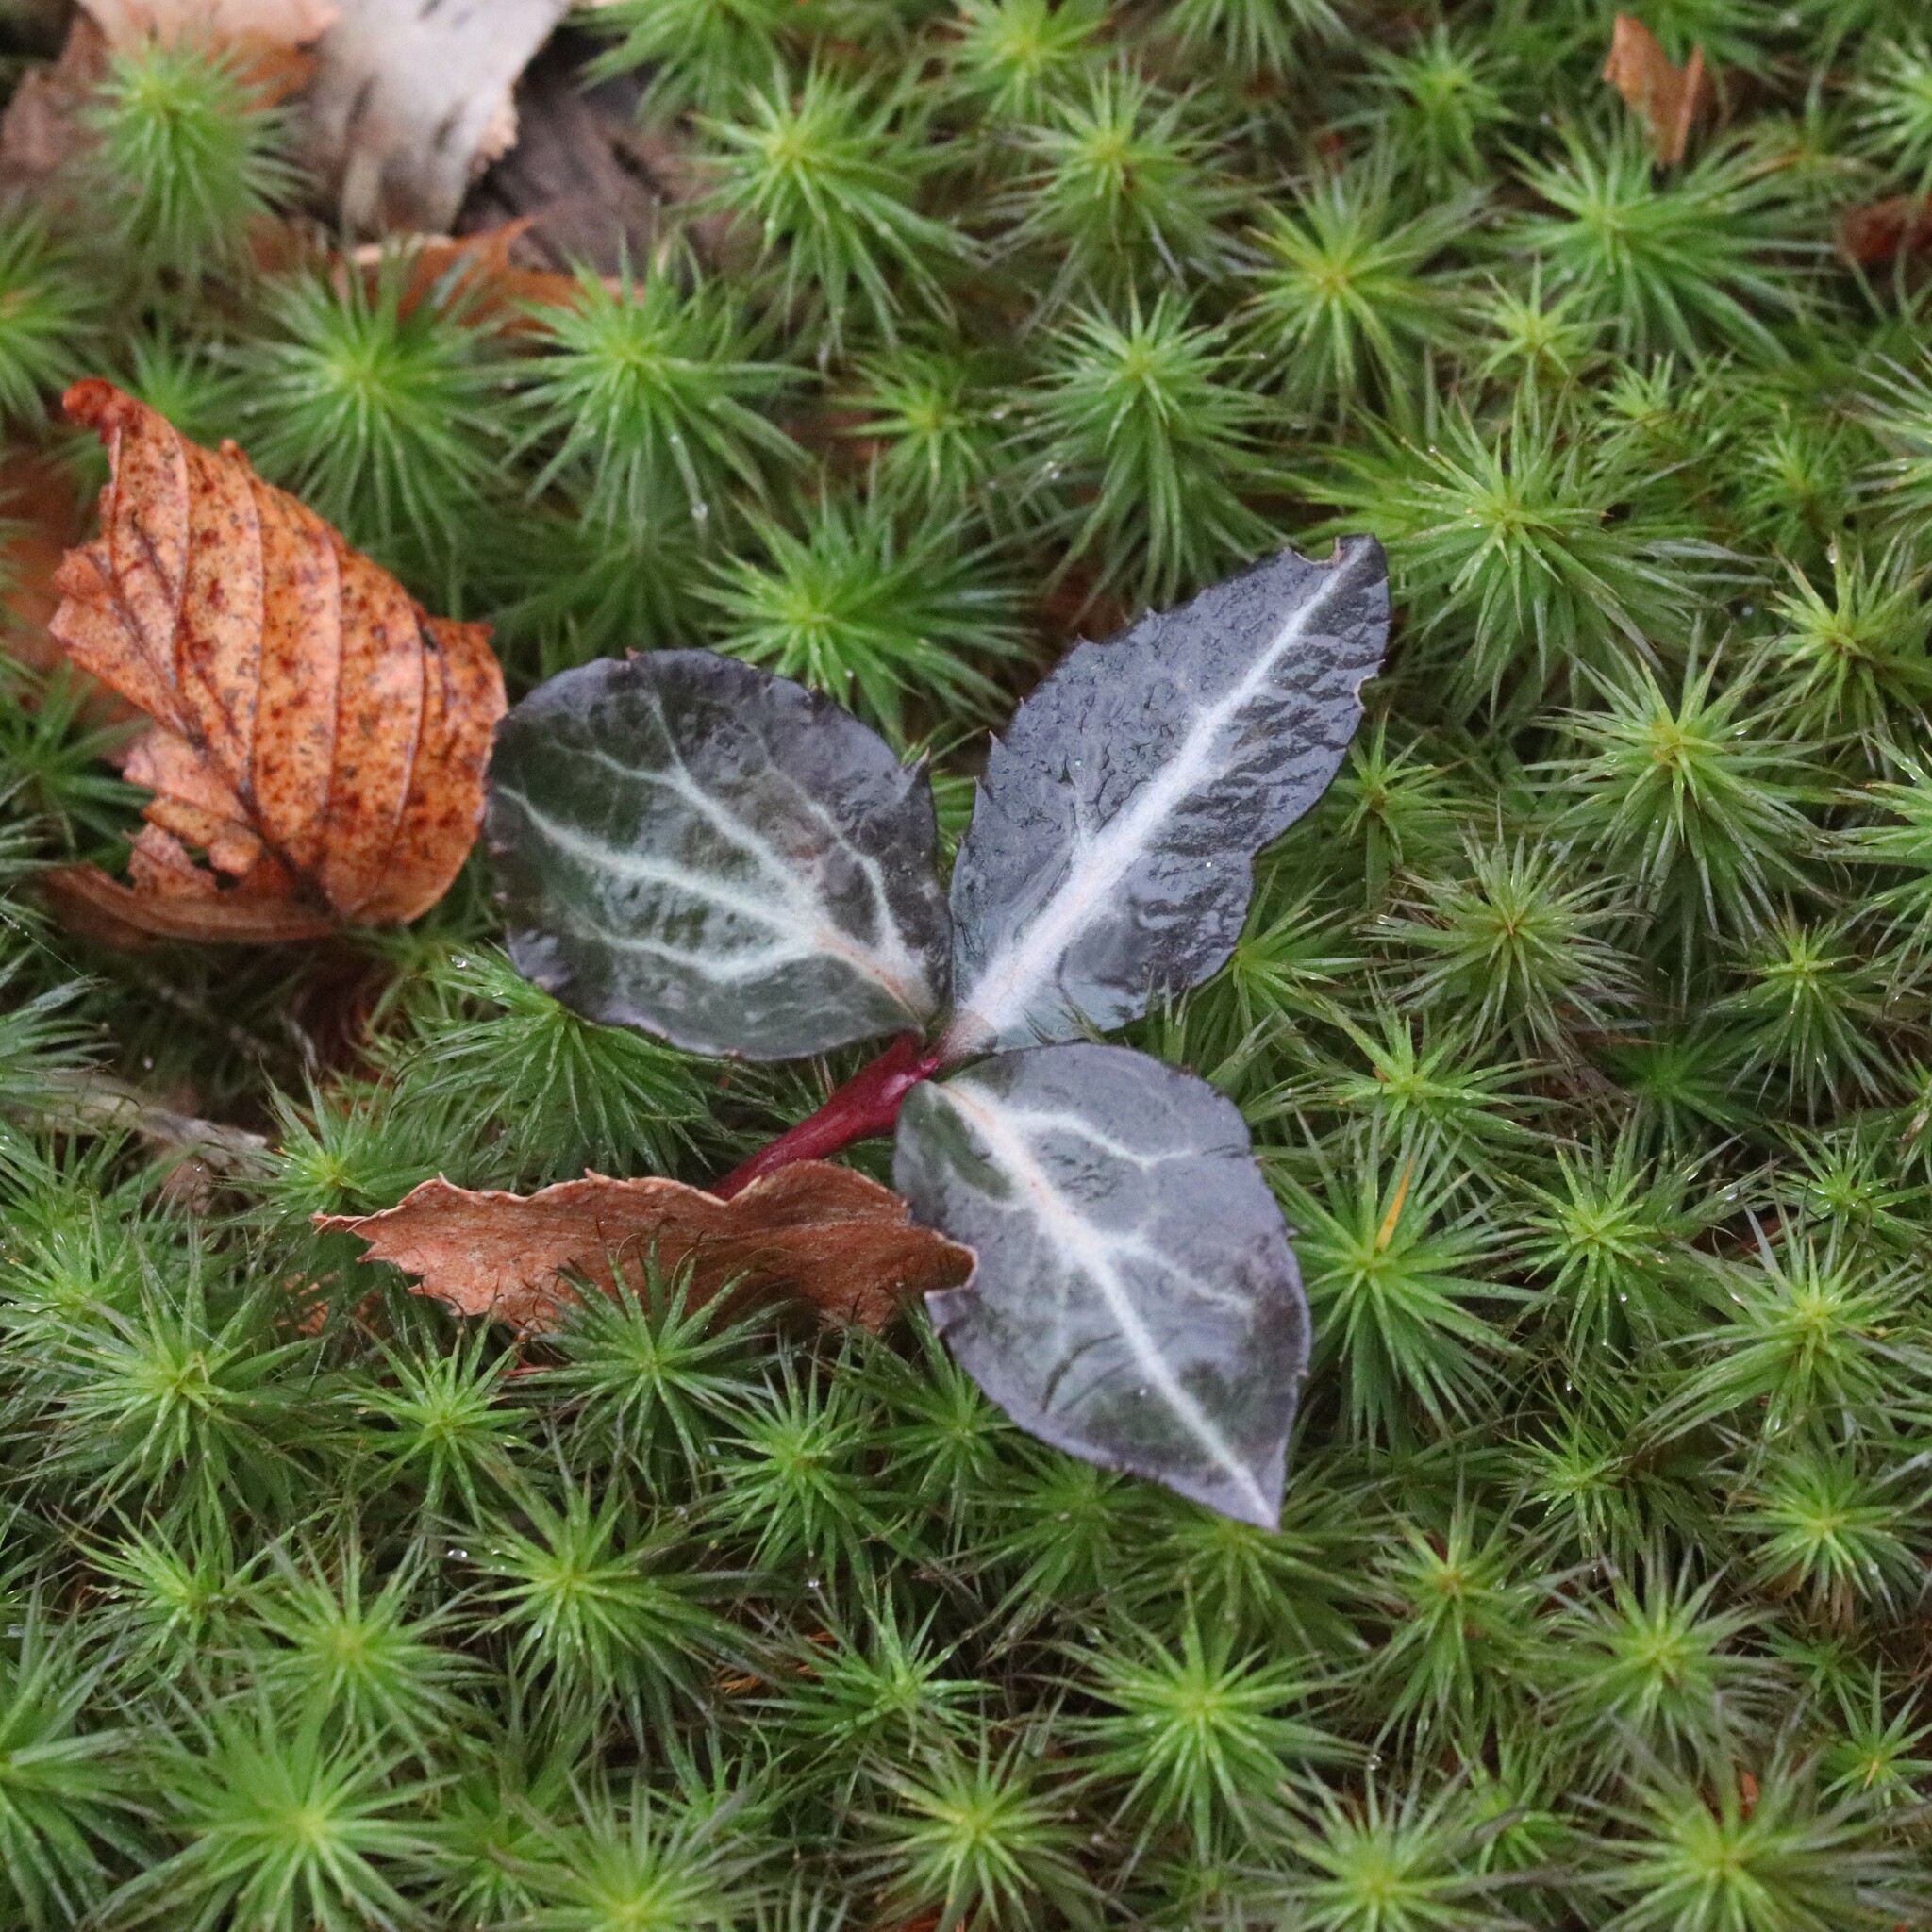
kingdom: Plantae
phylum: Tracheophyta
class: Magnoliopsida
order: Ericales
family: Ericaceae
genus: Chimaphila
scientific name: Chimaphila maculata
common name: Spotted pipsissewa
